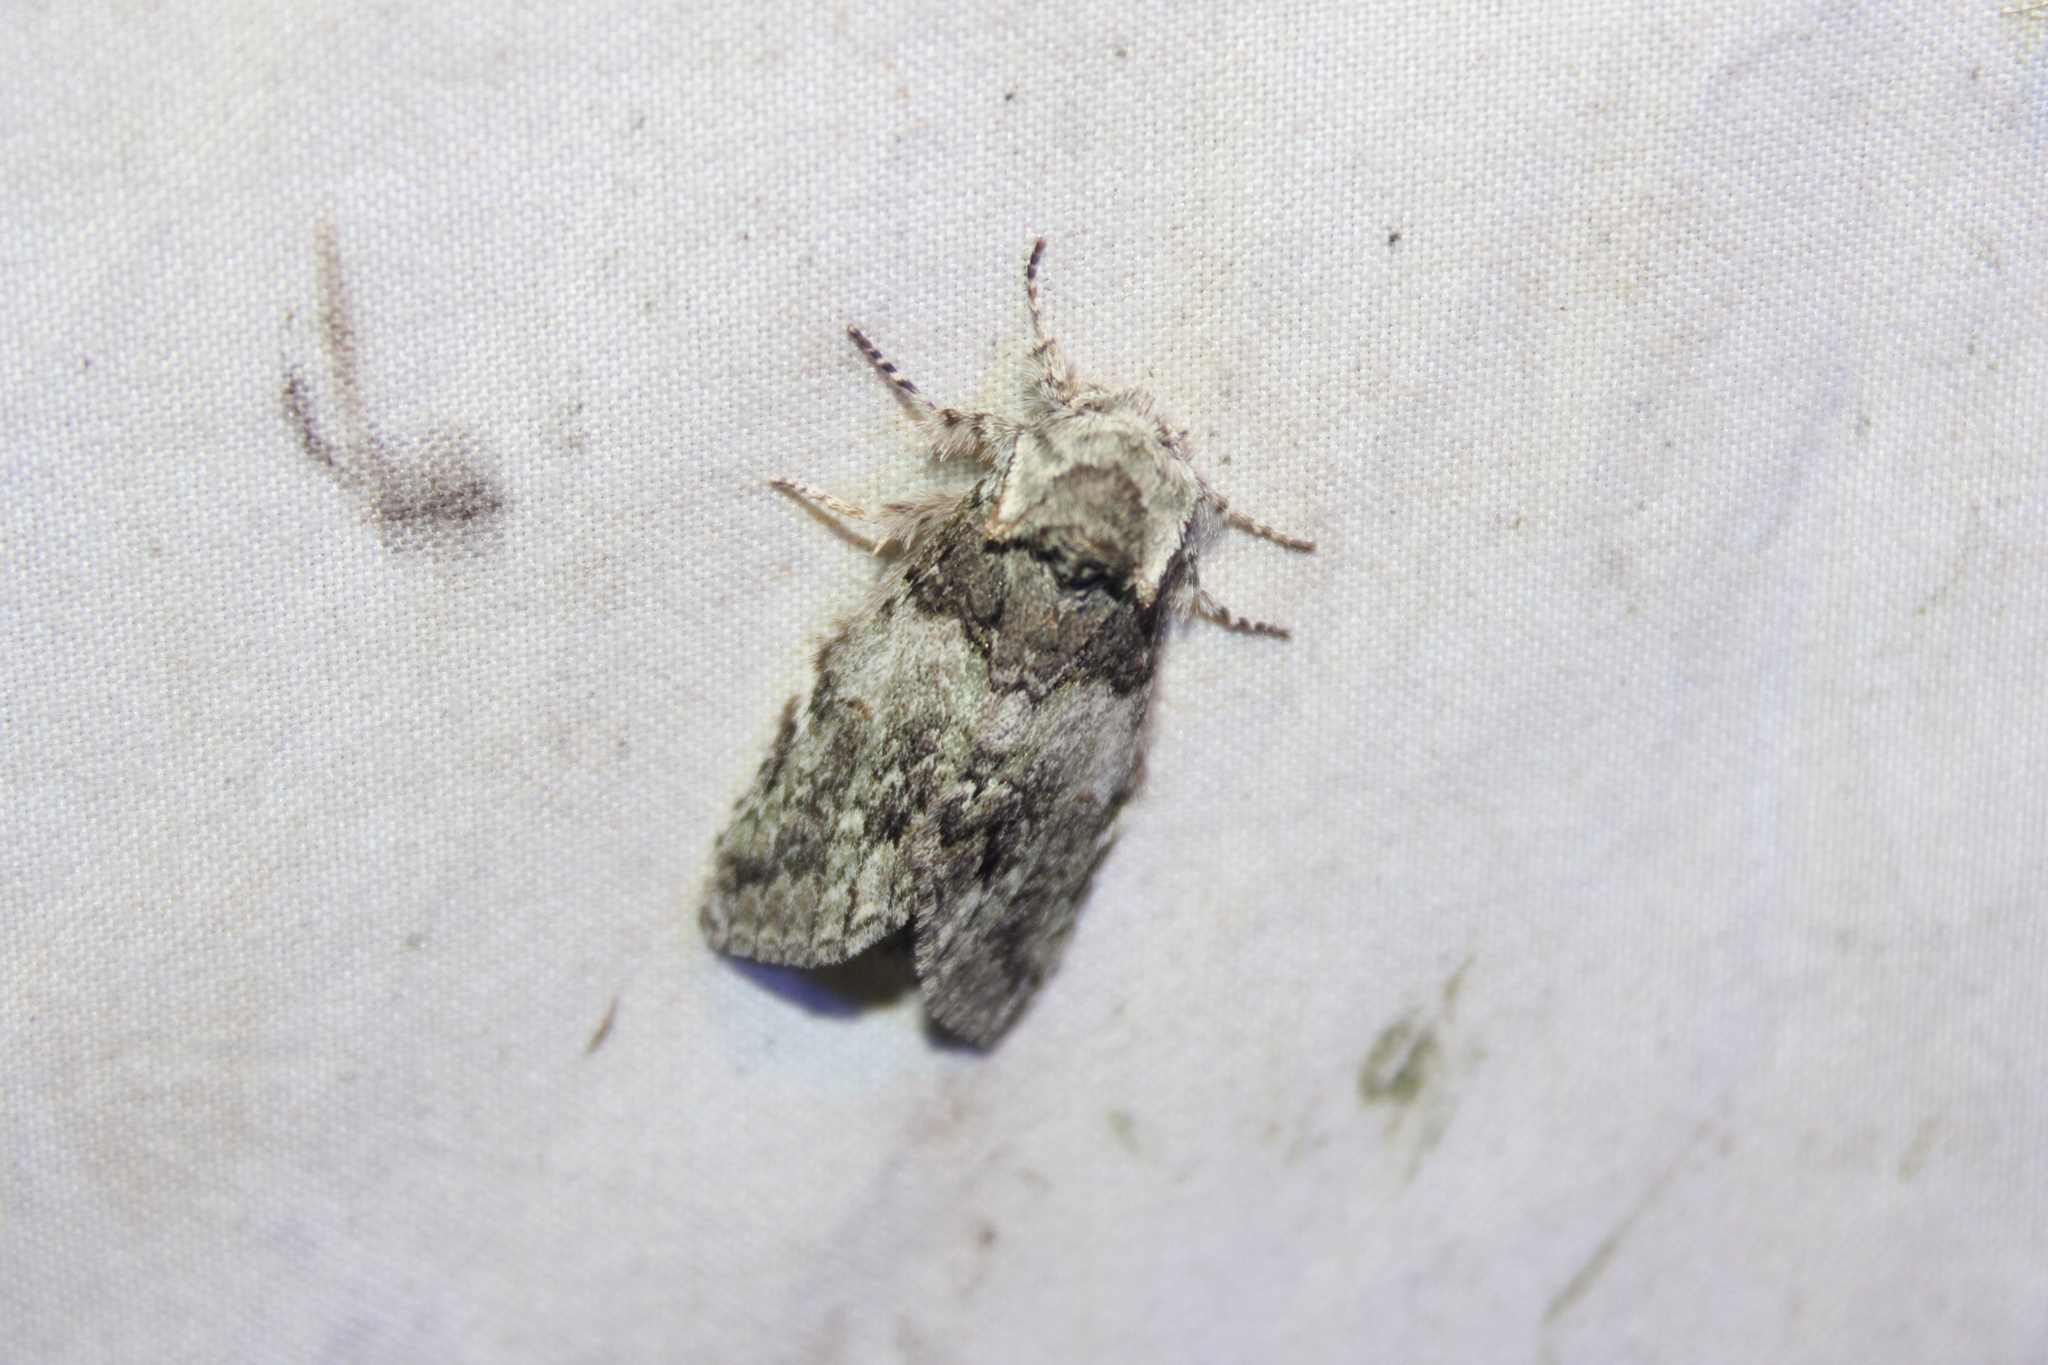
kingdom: Animalia
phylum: Arthropoda
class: Insecta
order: Lepidoptera
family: Notodontidae
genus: Macrurocampa
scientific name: Macrurocampa marthesia
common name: Mottled prominent
